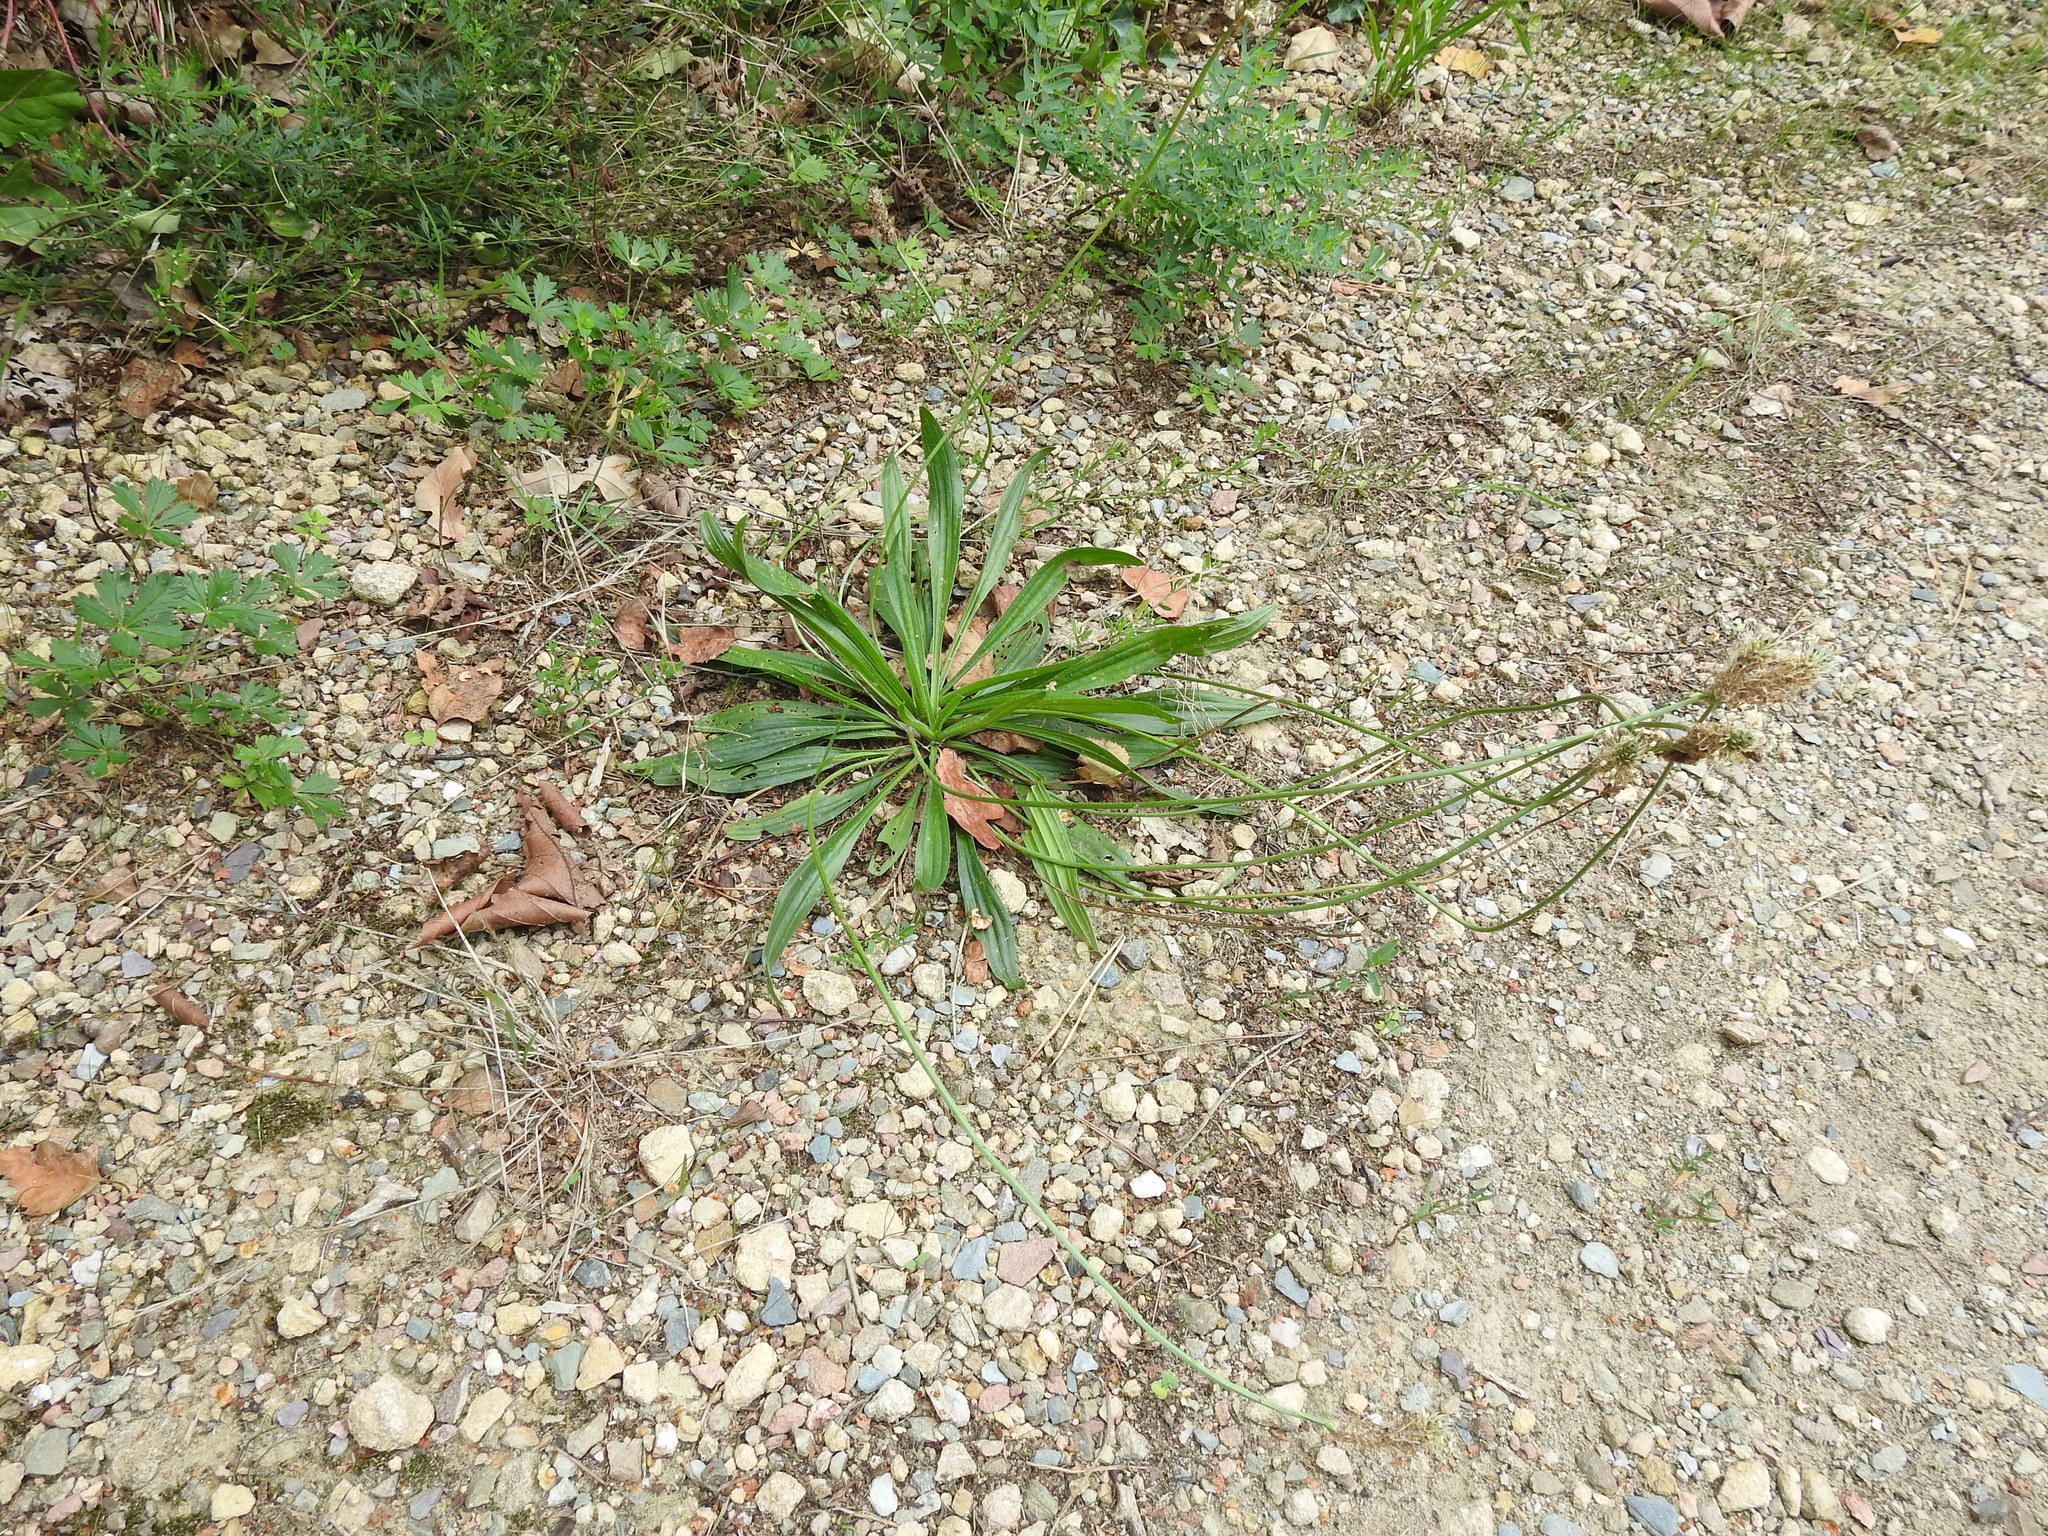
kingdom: Plantae
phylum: Tracheophyta
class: Magnoliopsida
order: Lamiales
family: Plantaginaceae
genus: Plantago
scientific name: Plantago lanceolata
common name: Ribwort plantain
